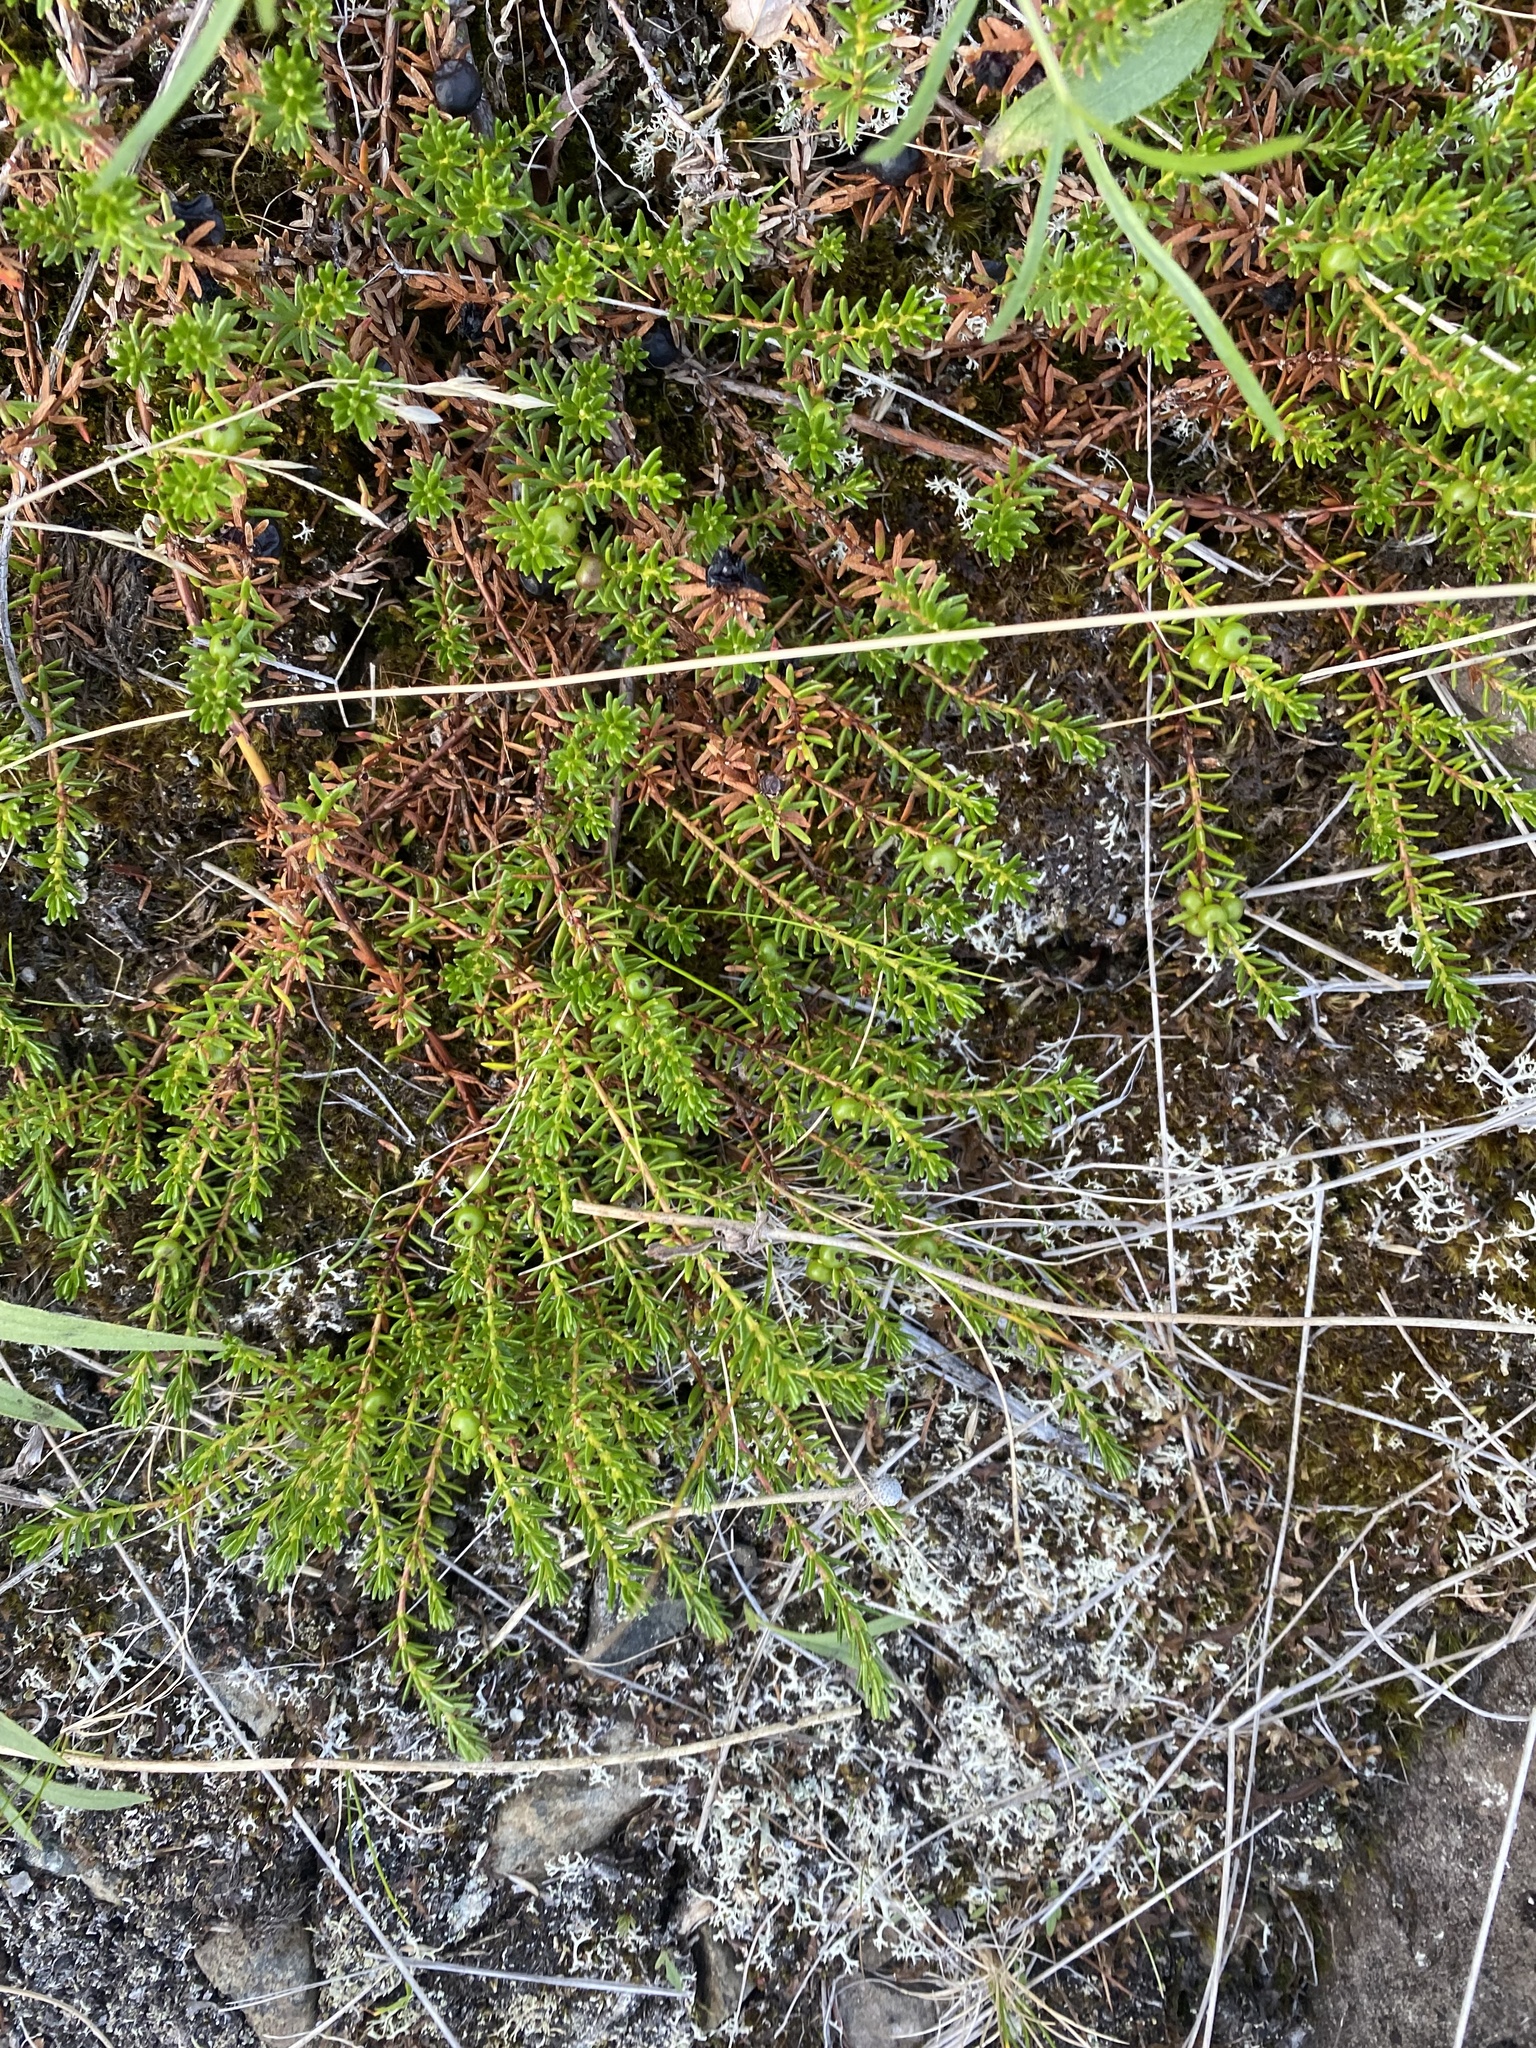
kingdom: Plantae
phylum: Tracheophyta
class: Magnoliopsida
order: Ericales
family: Ericaceae
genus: Empetrum
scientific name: Empetrum nigrum
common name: Black crowberry
